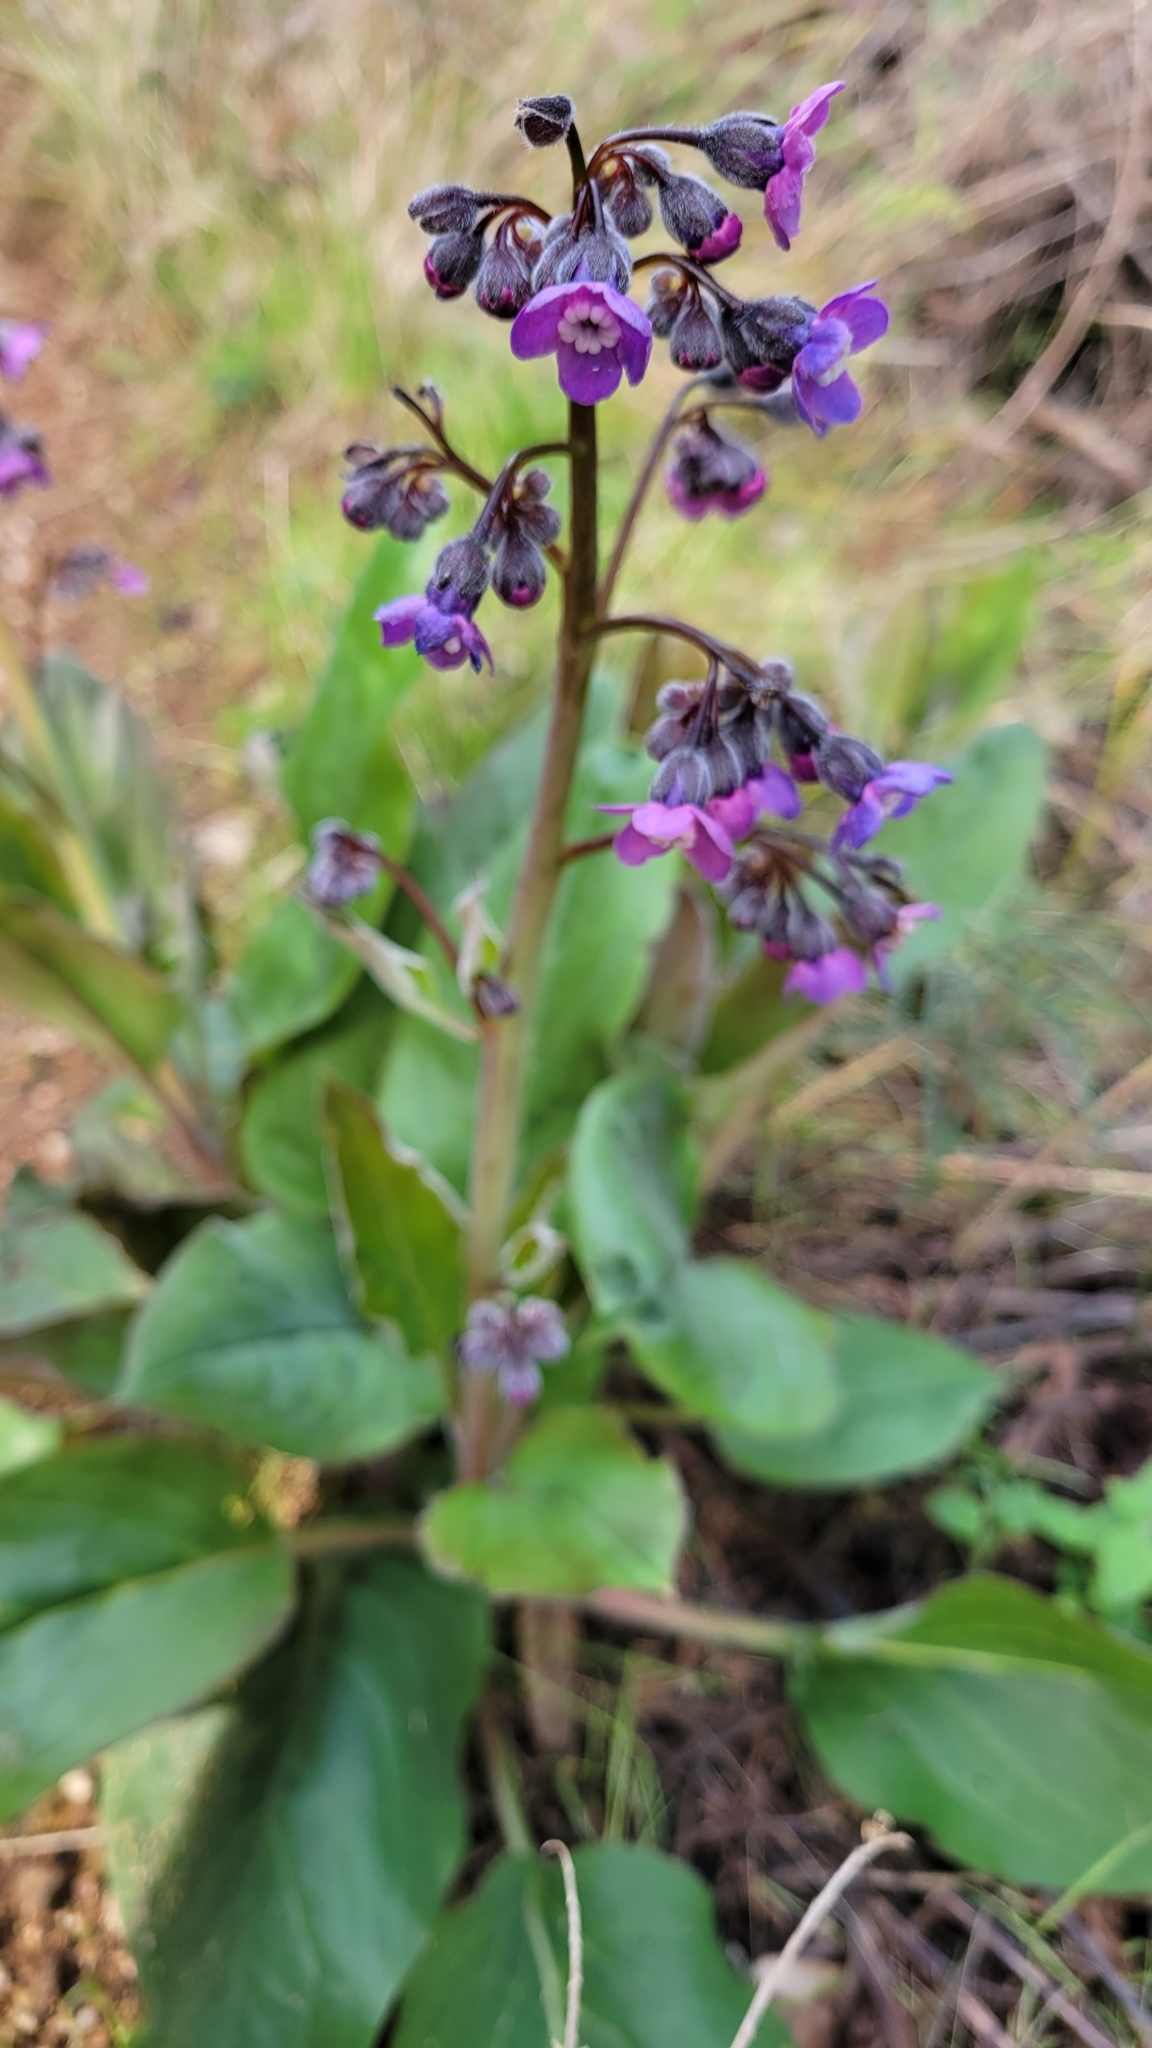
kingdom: Plantae
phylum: Tracheophyta
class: Magnoliopsida
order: Boraginales
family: Boraginaceae
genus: Adelinia
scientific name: Adelinia grande
